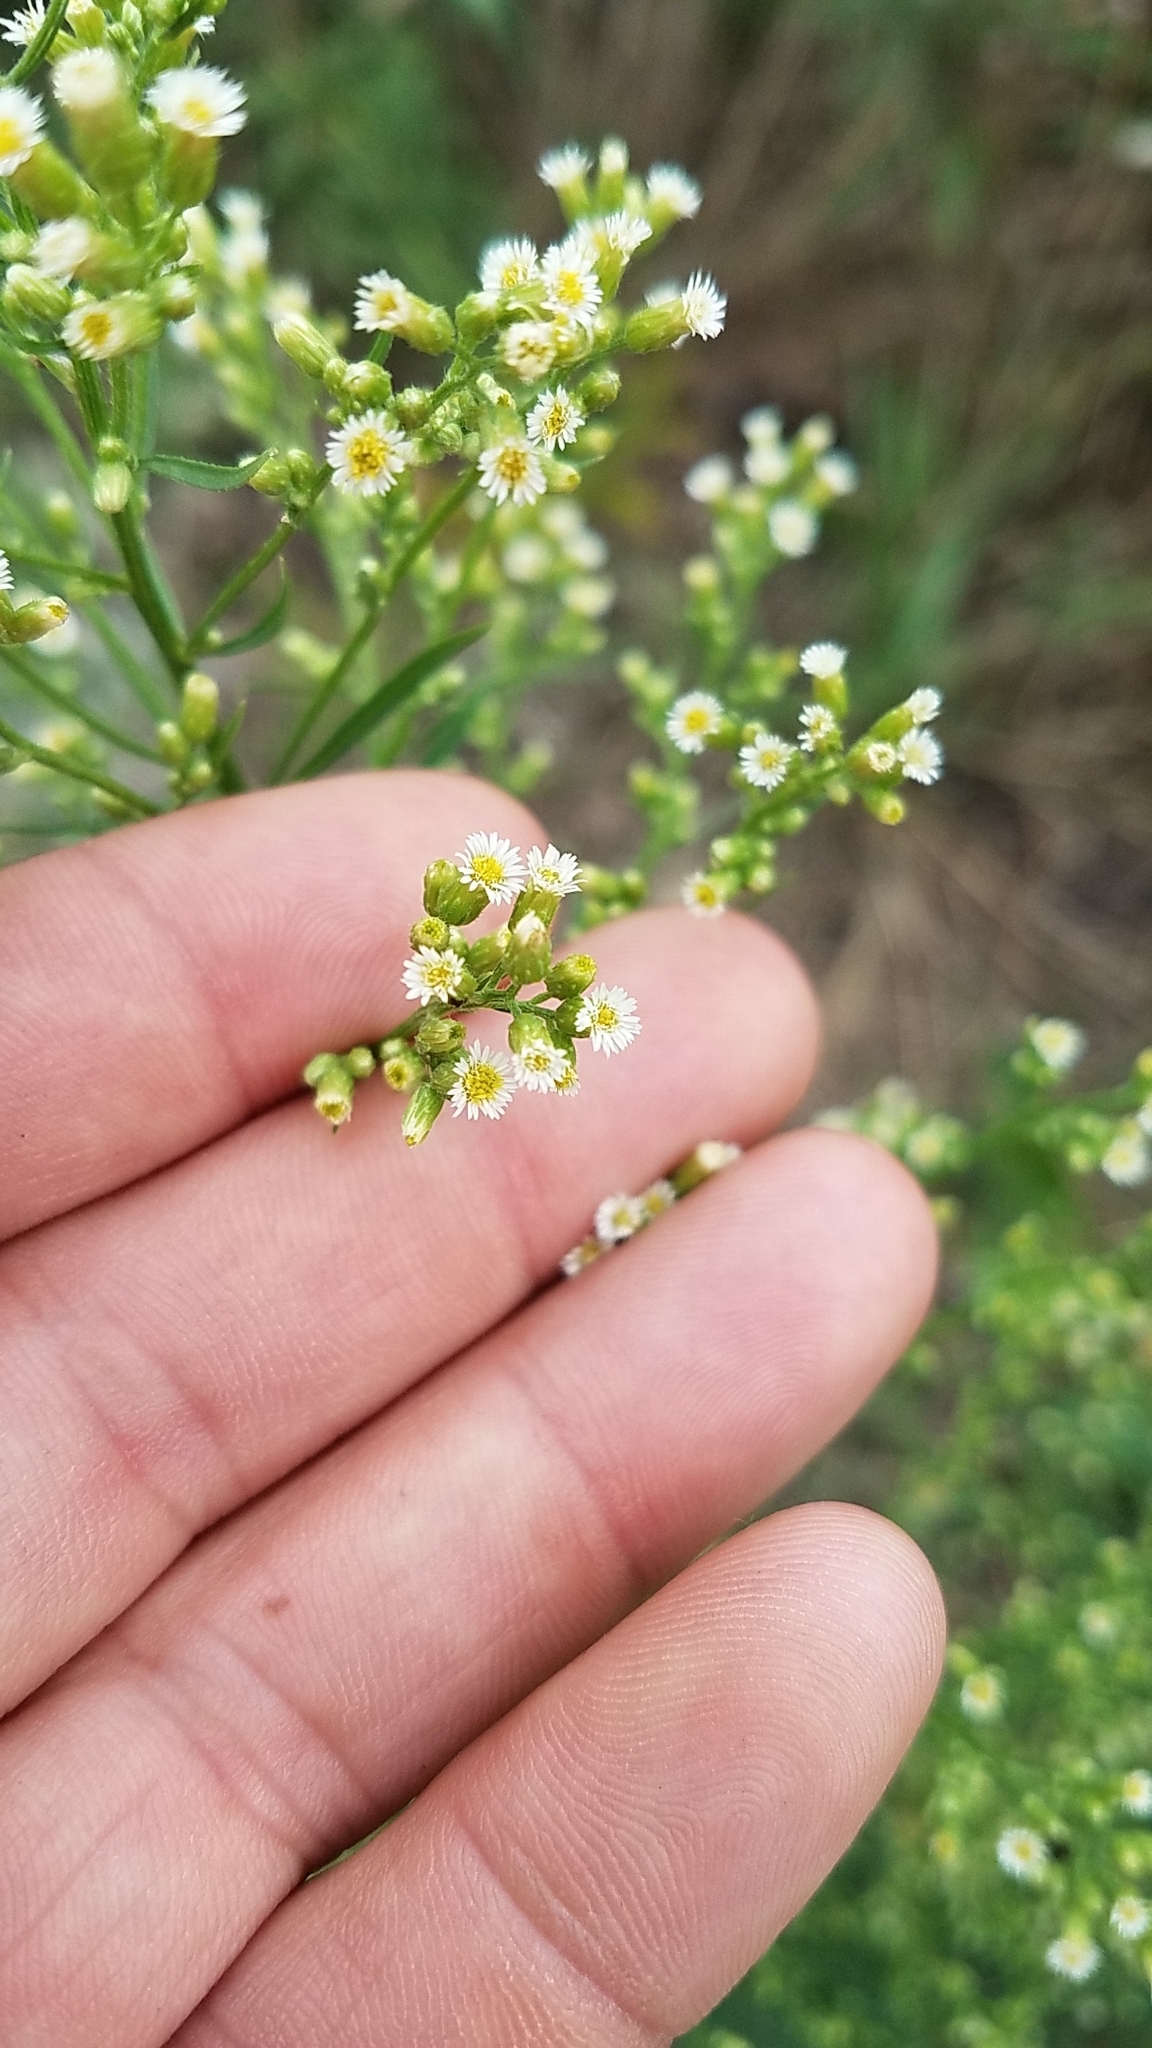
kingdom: Plantae
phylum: Tracheophyta
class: Magnoliopsida
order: Asterales
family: Asteraceae
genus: Erigeron
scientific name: Erigeron canadensis
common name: Canadian fleabane
